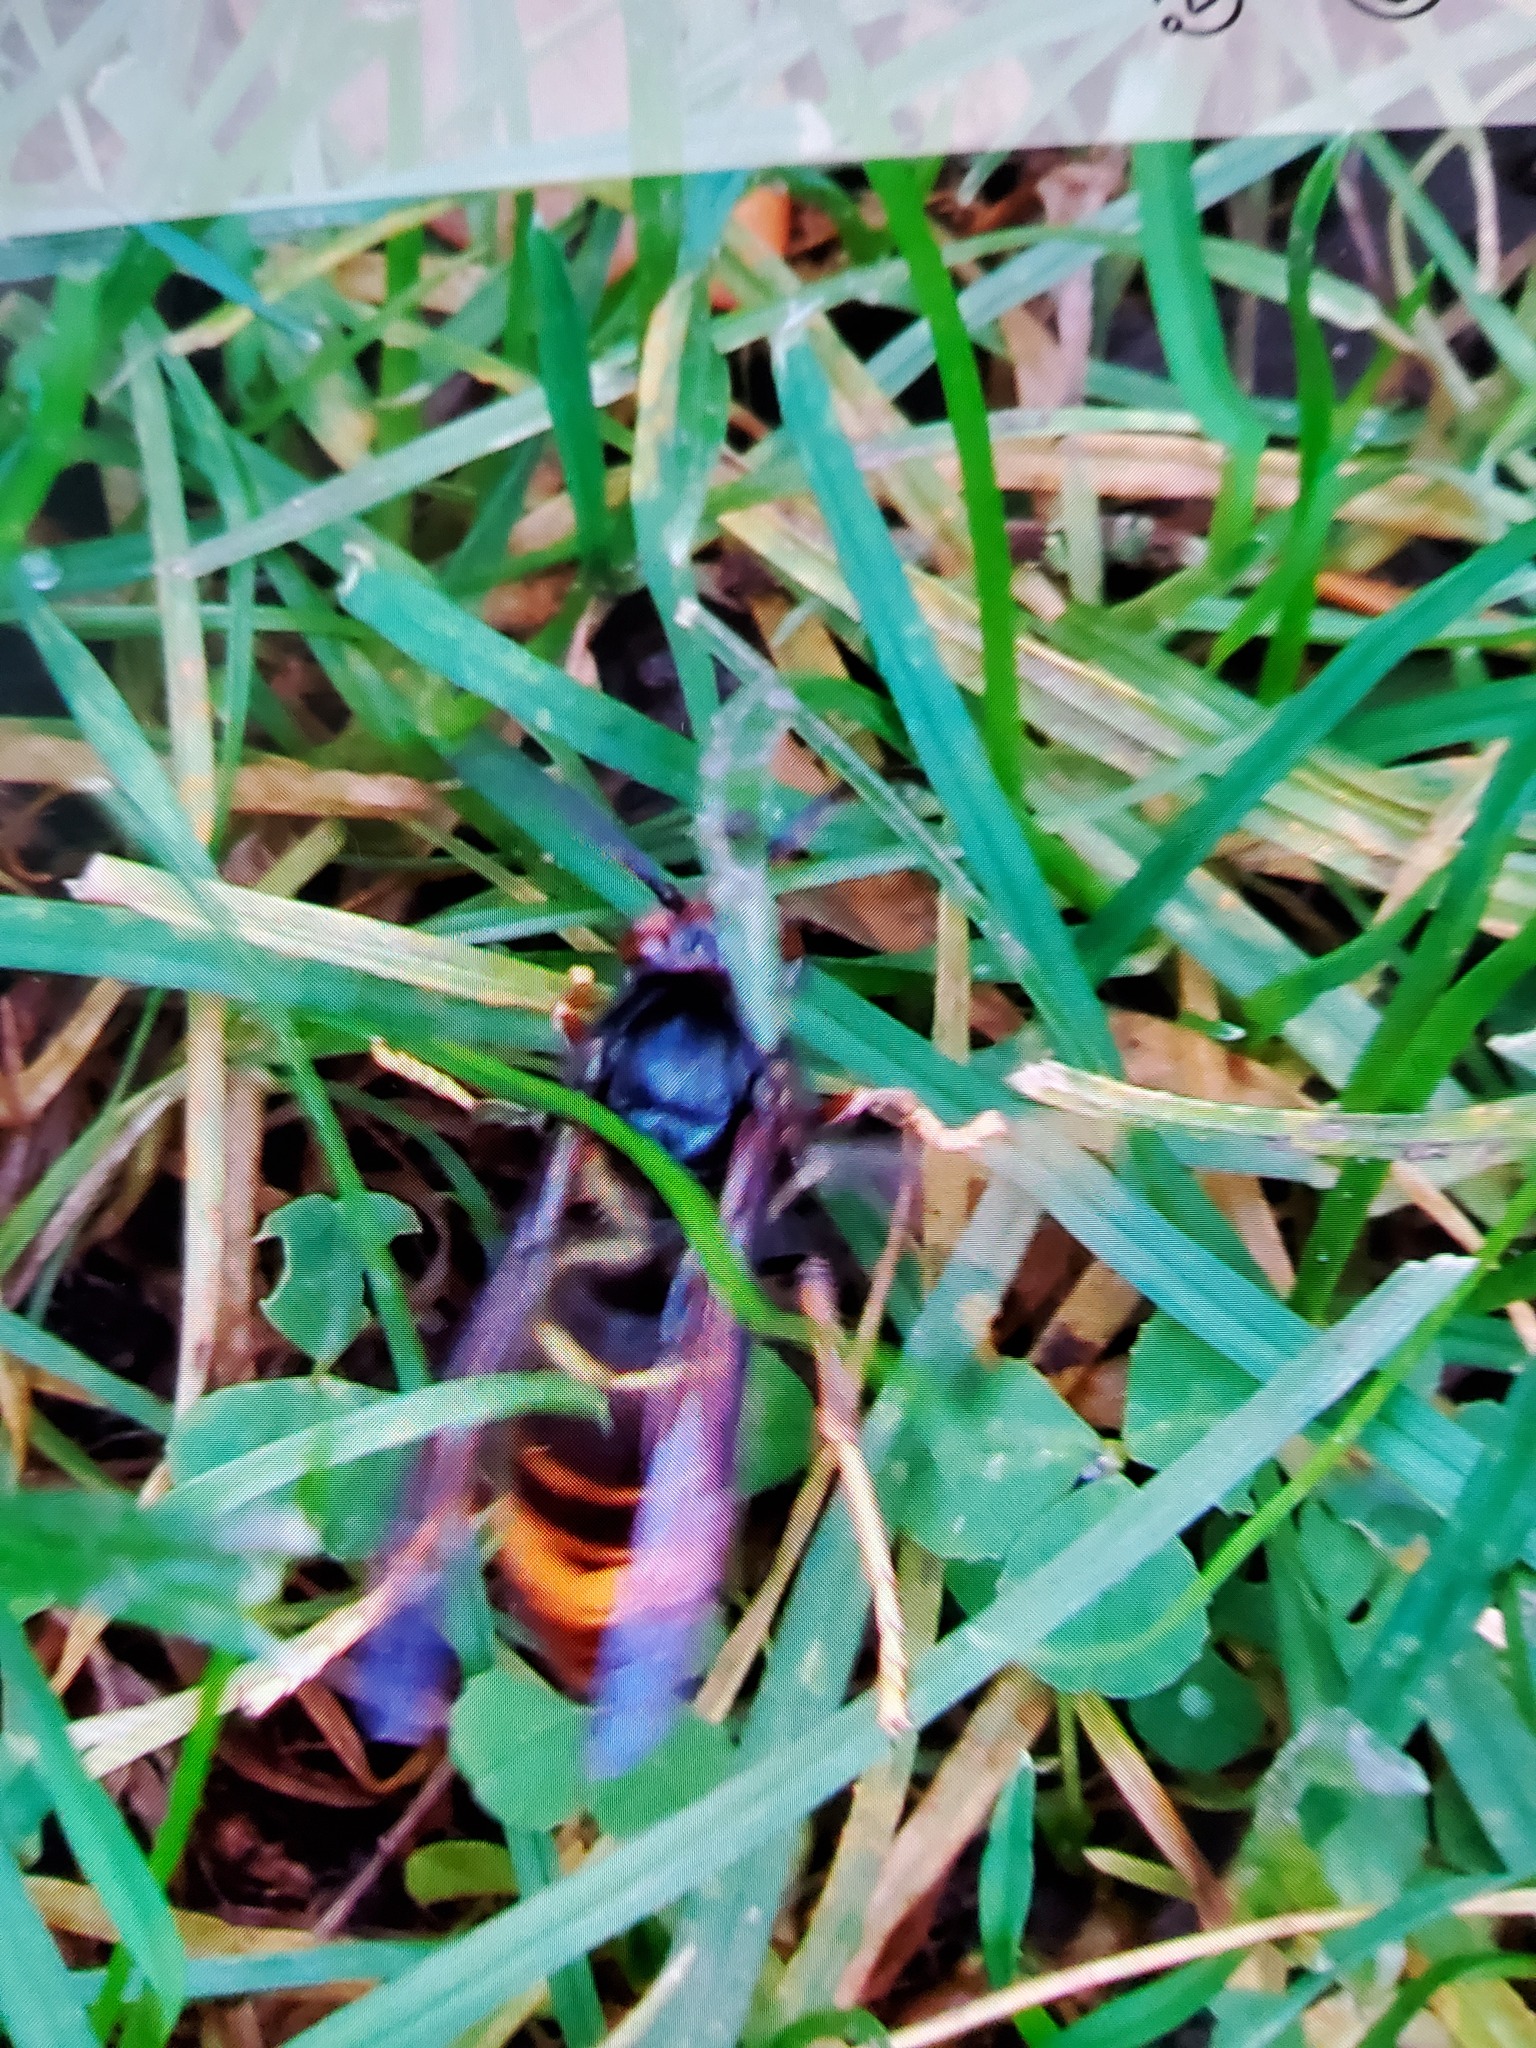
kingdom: Animalia
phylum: Arthropoda
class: Insecta
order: Hymenoptera
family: Vespidae
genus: Vespa
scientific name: Vespa velutina
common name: Asian hornet
